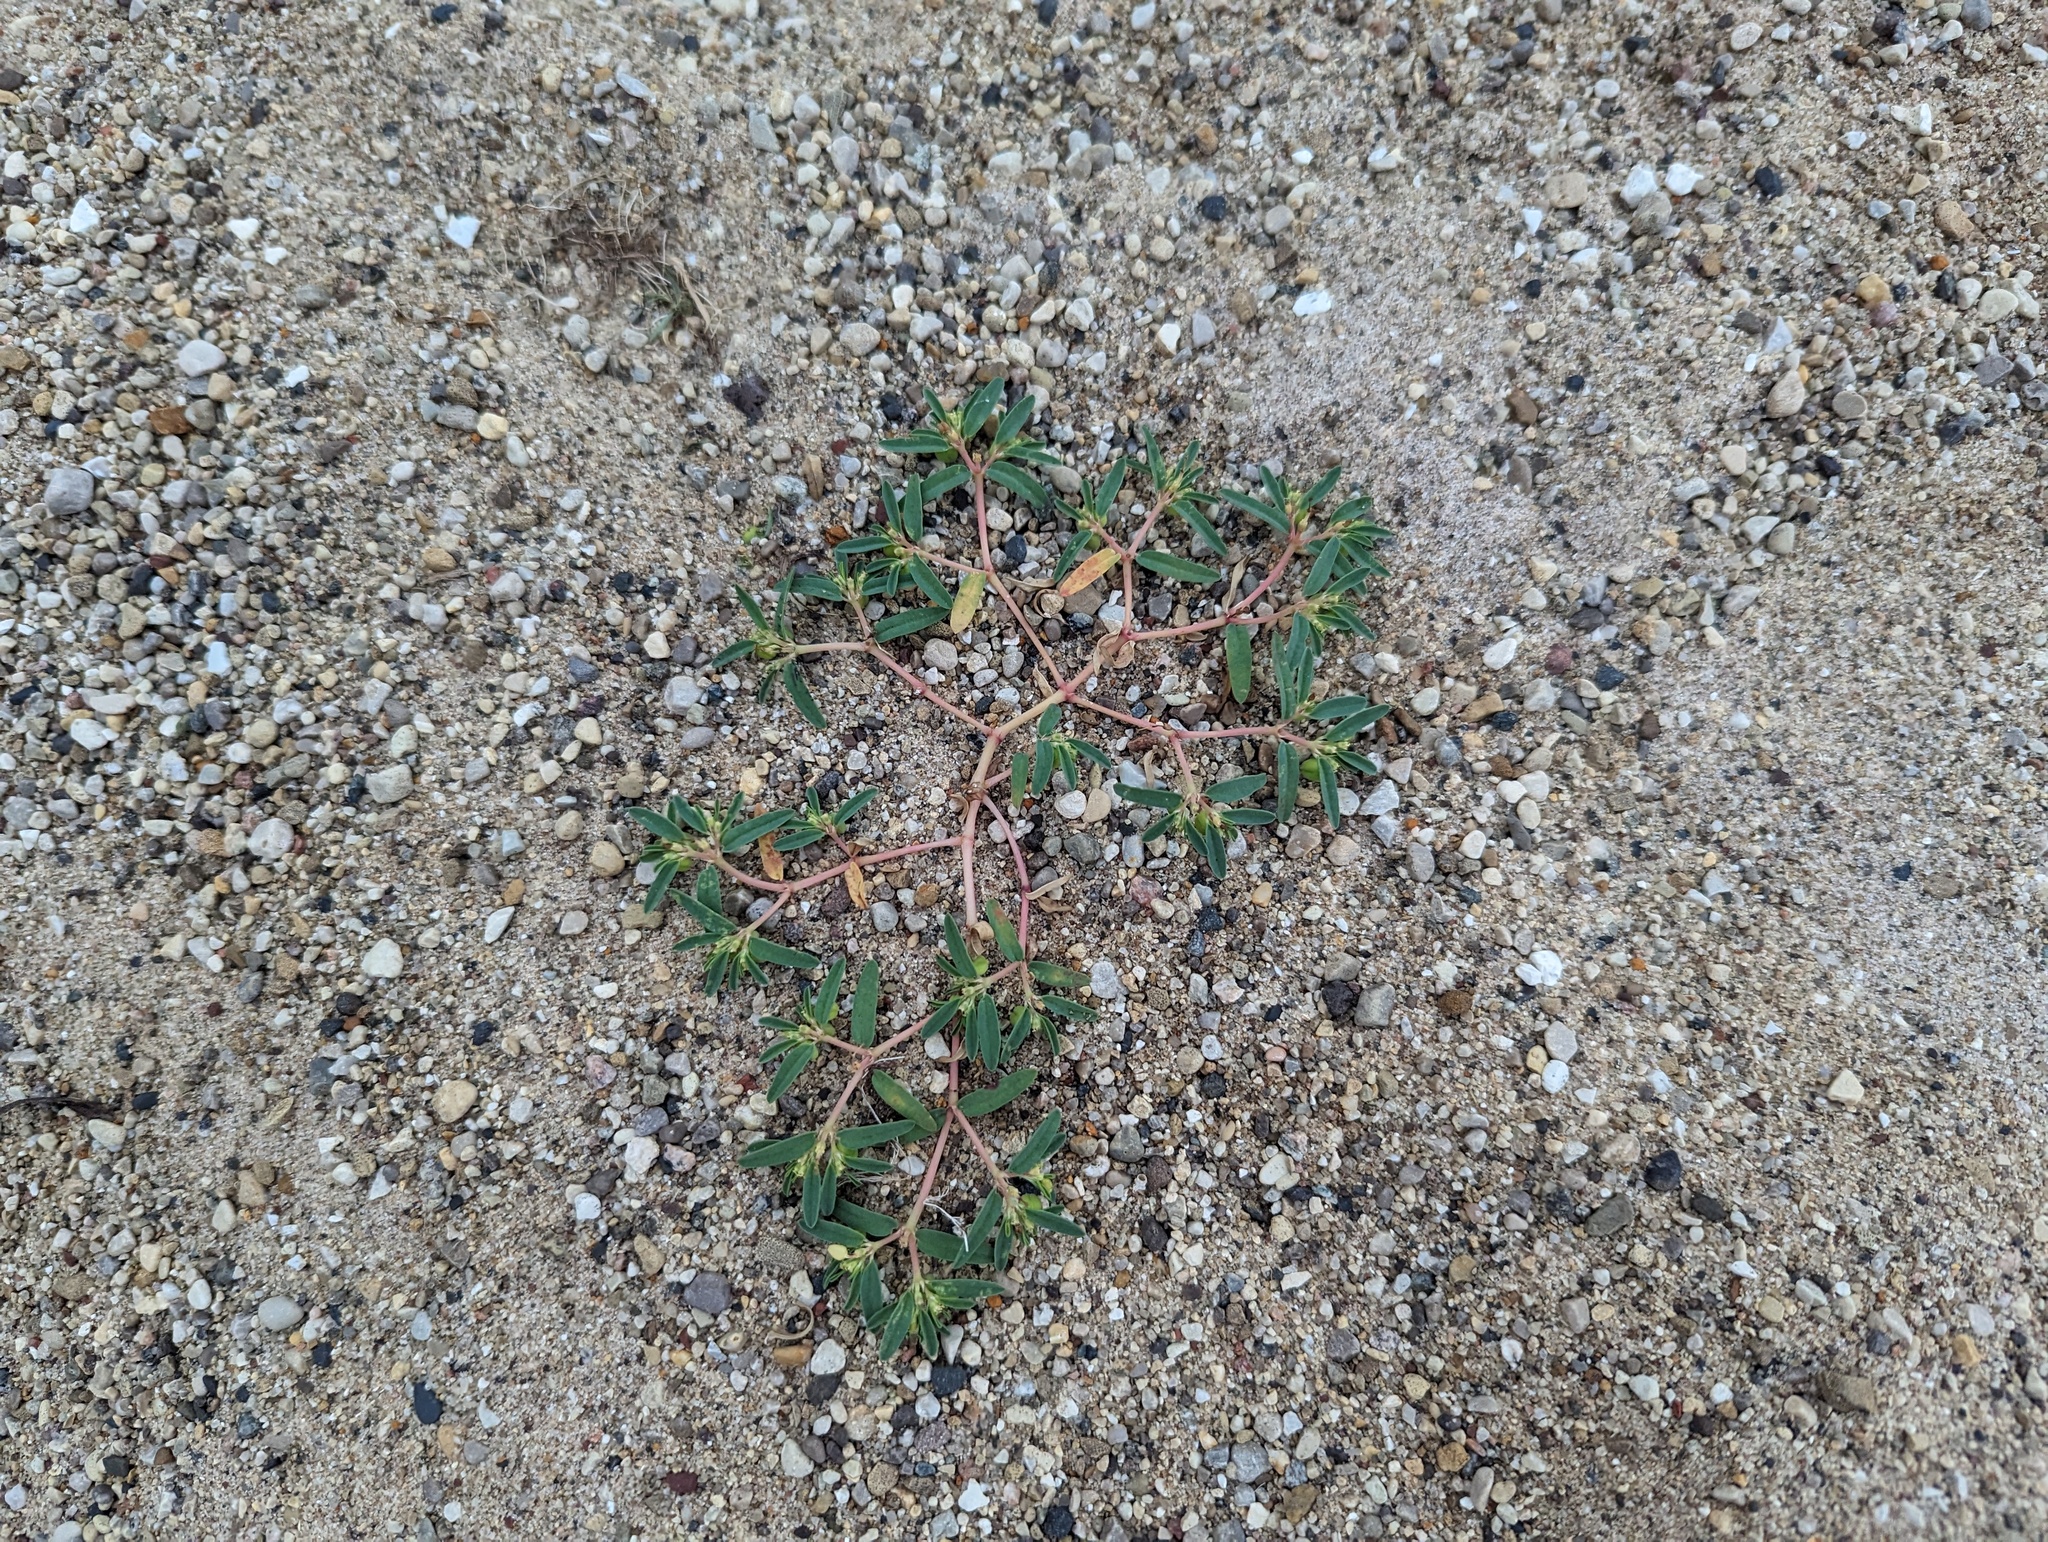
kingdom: Plantae
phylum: Tracheophyta
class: Magnoliopsida
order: Malpighiales
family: Euphorbiaceae
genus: Euphorbia
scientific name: Euphorbia polygonifolia
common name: Knotweed spurge
